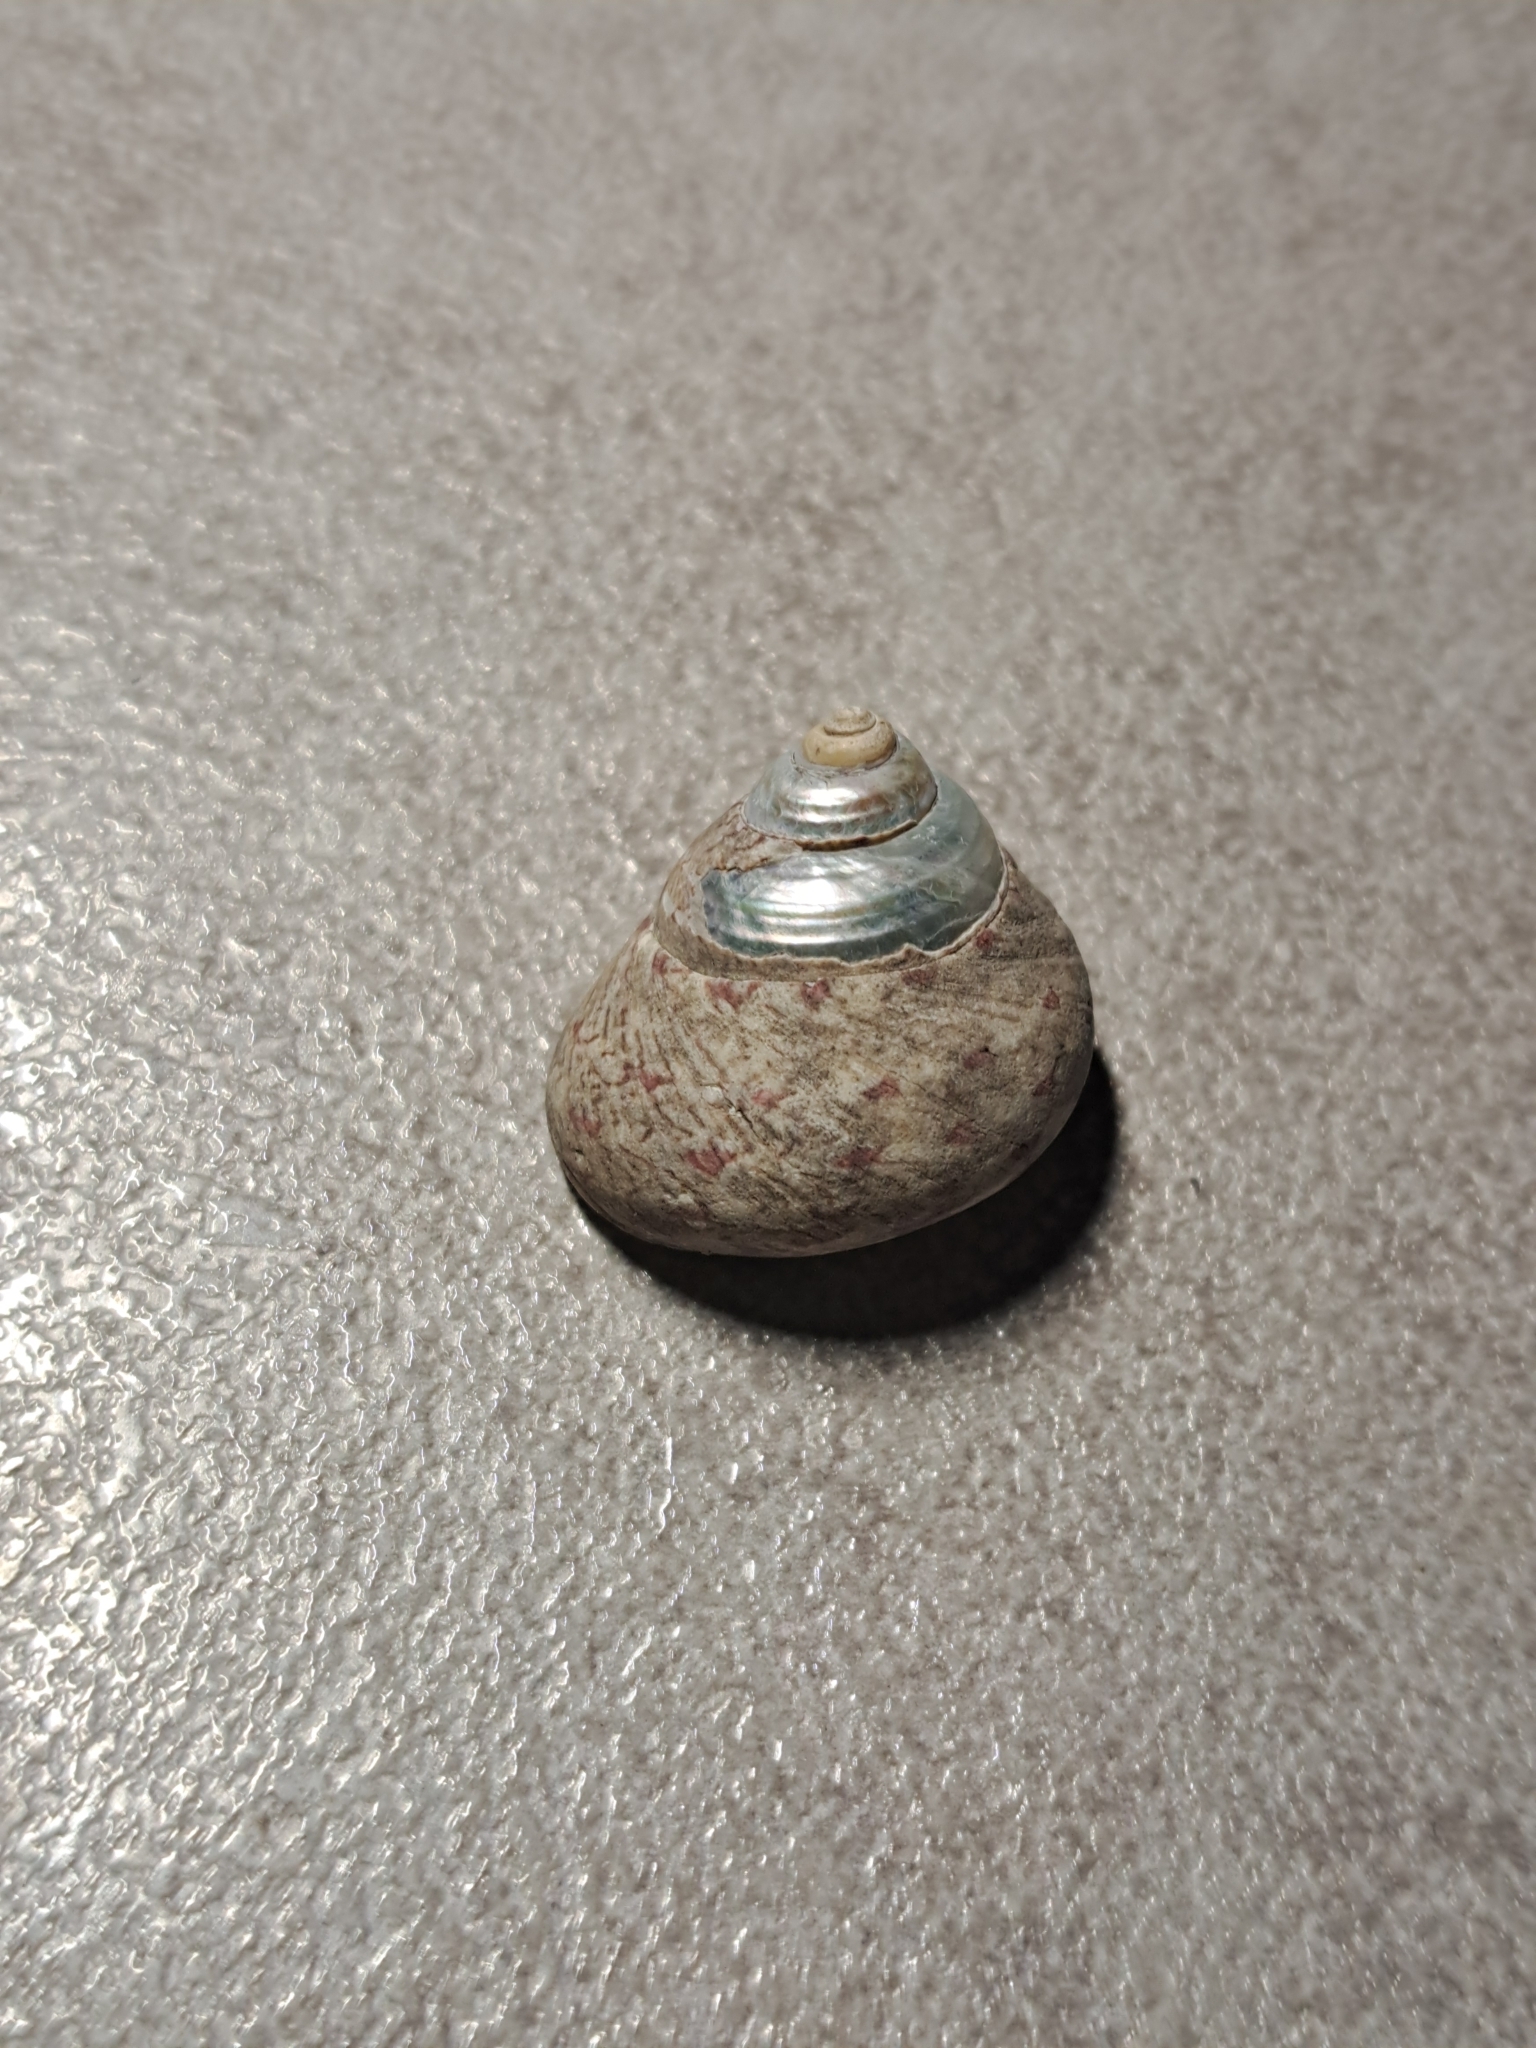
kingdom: Animalia
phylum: Mollusca
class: Gastropoda
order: Trochida
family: Trochidae
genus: Phorcus
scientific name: Phorcus articulatus
